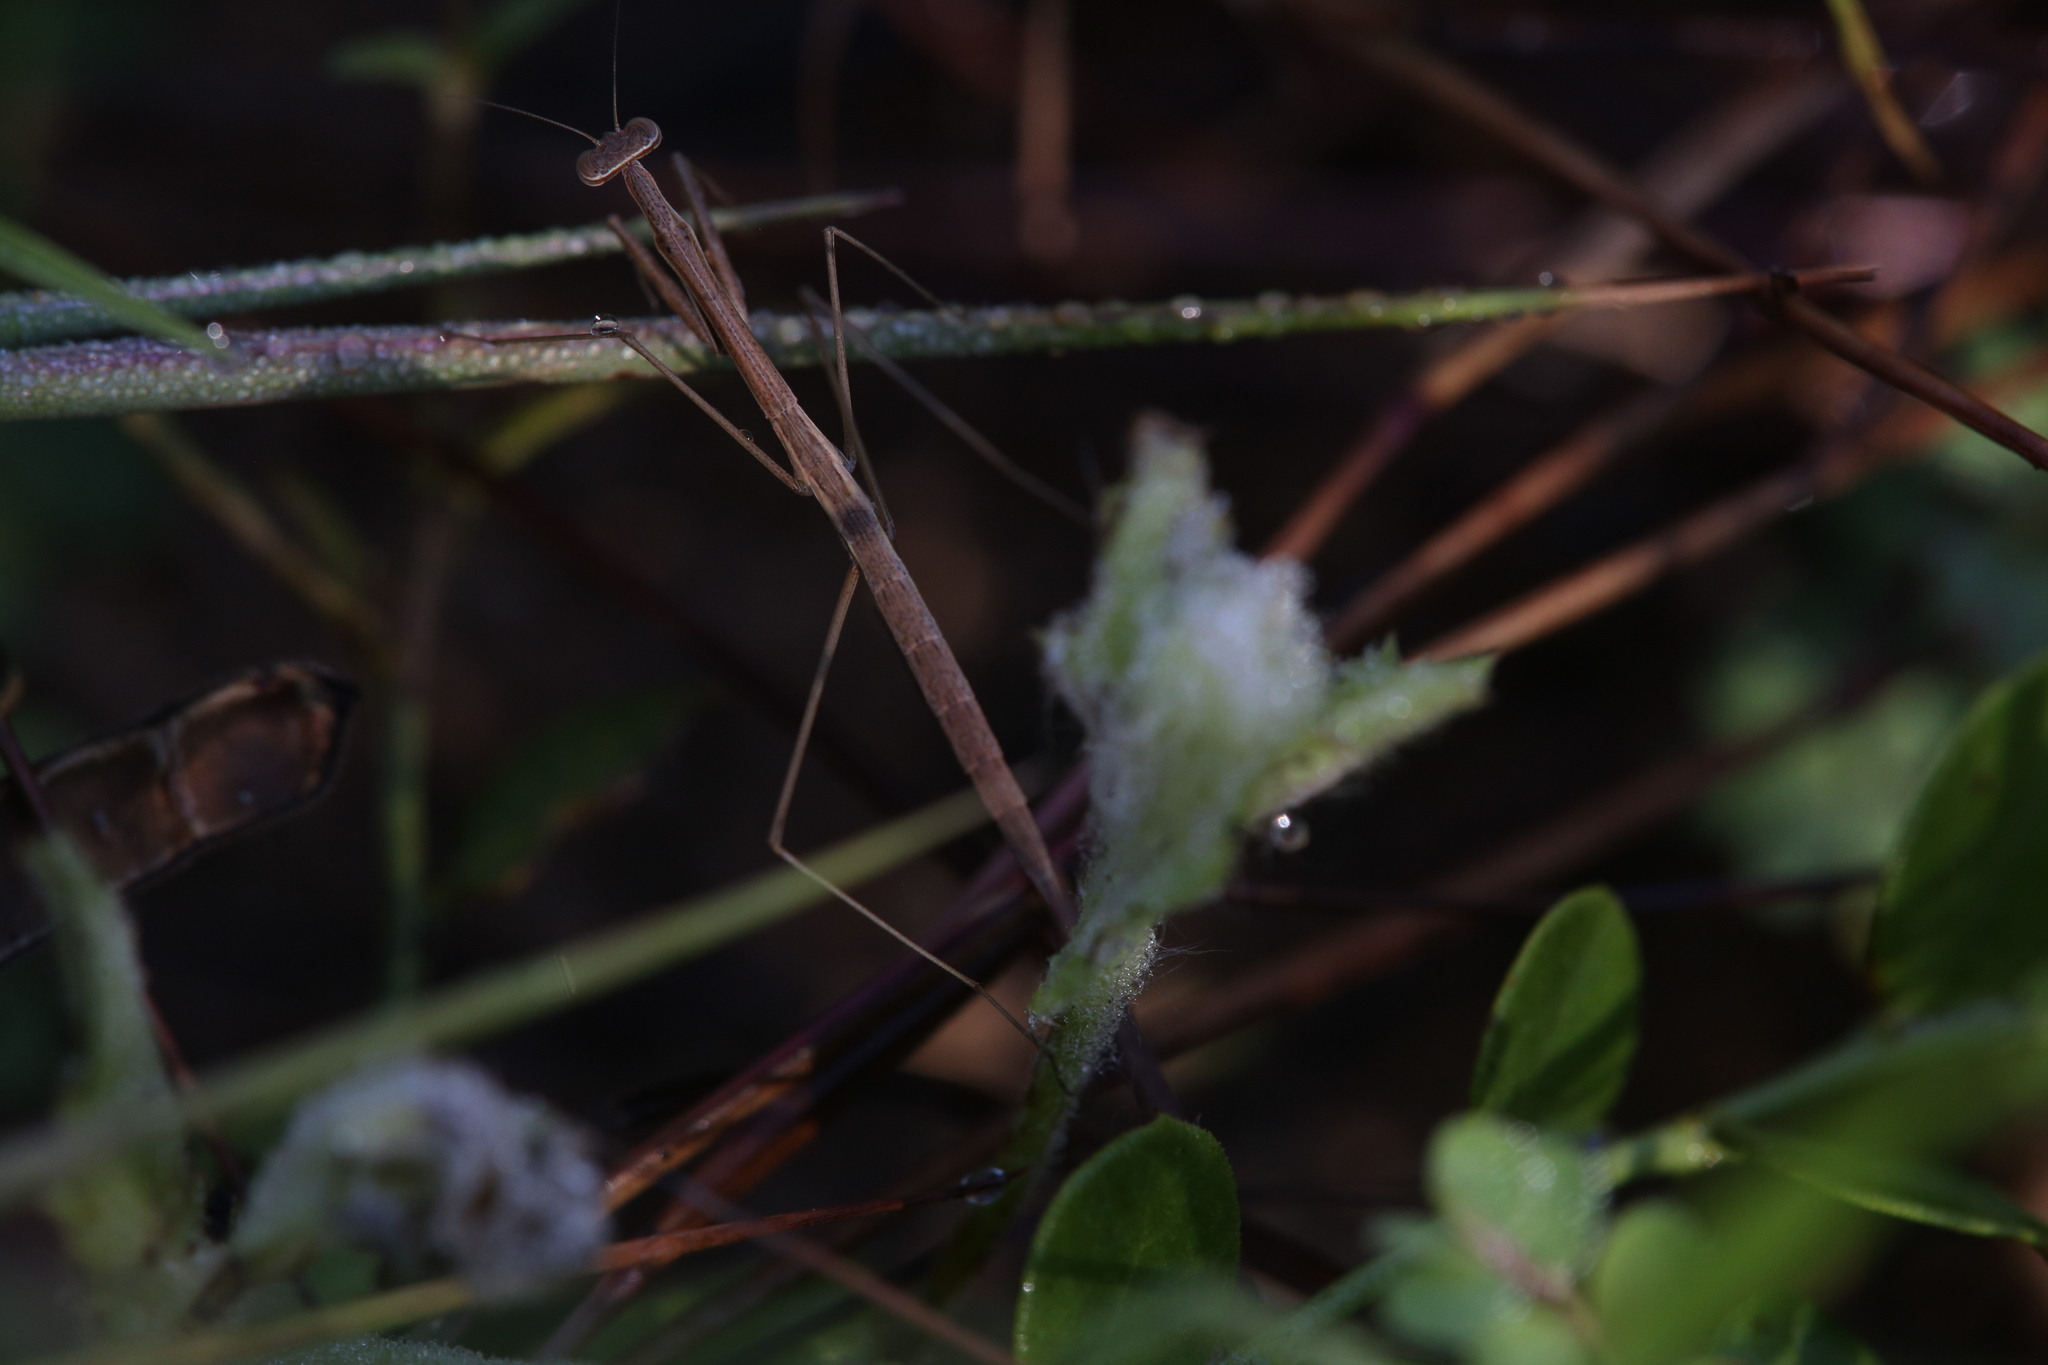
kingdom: Animalia
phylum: Arthropoda
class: Insecta
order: Mantodea
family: Mantidae
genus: Rhodomantis
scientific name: Rhodomantis queenslandica
